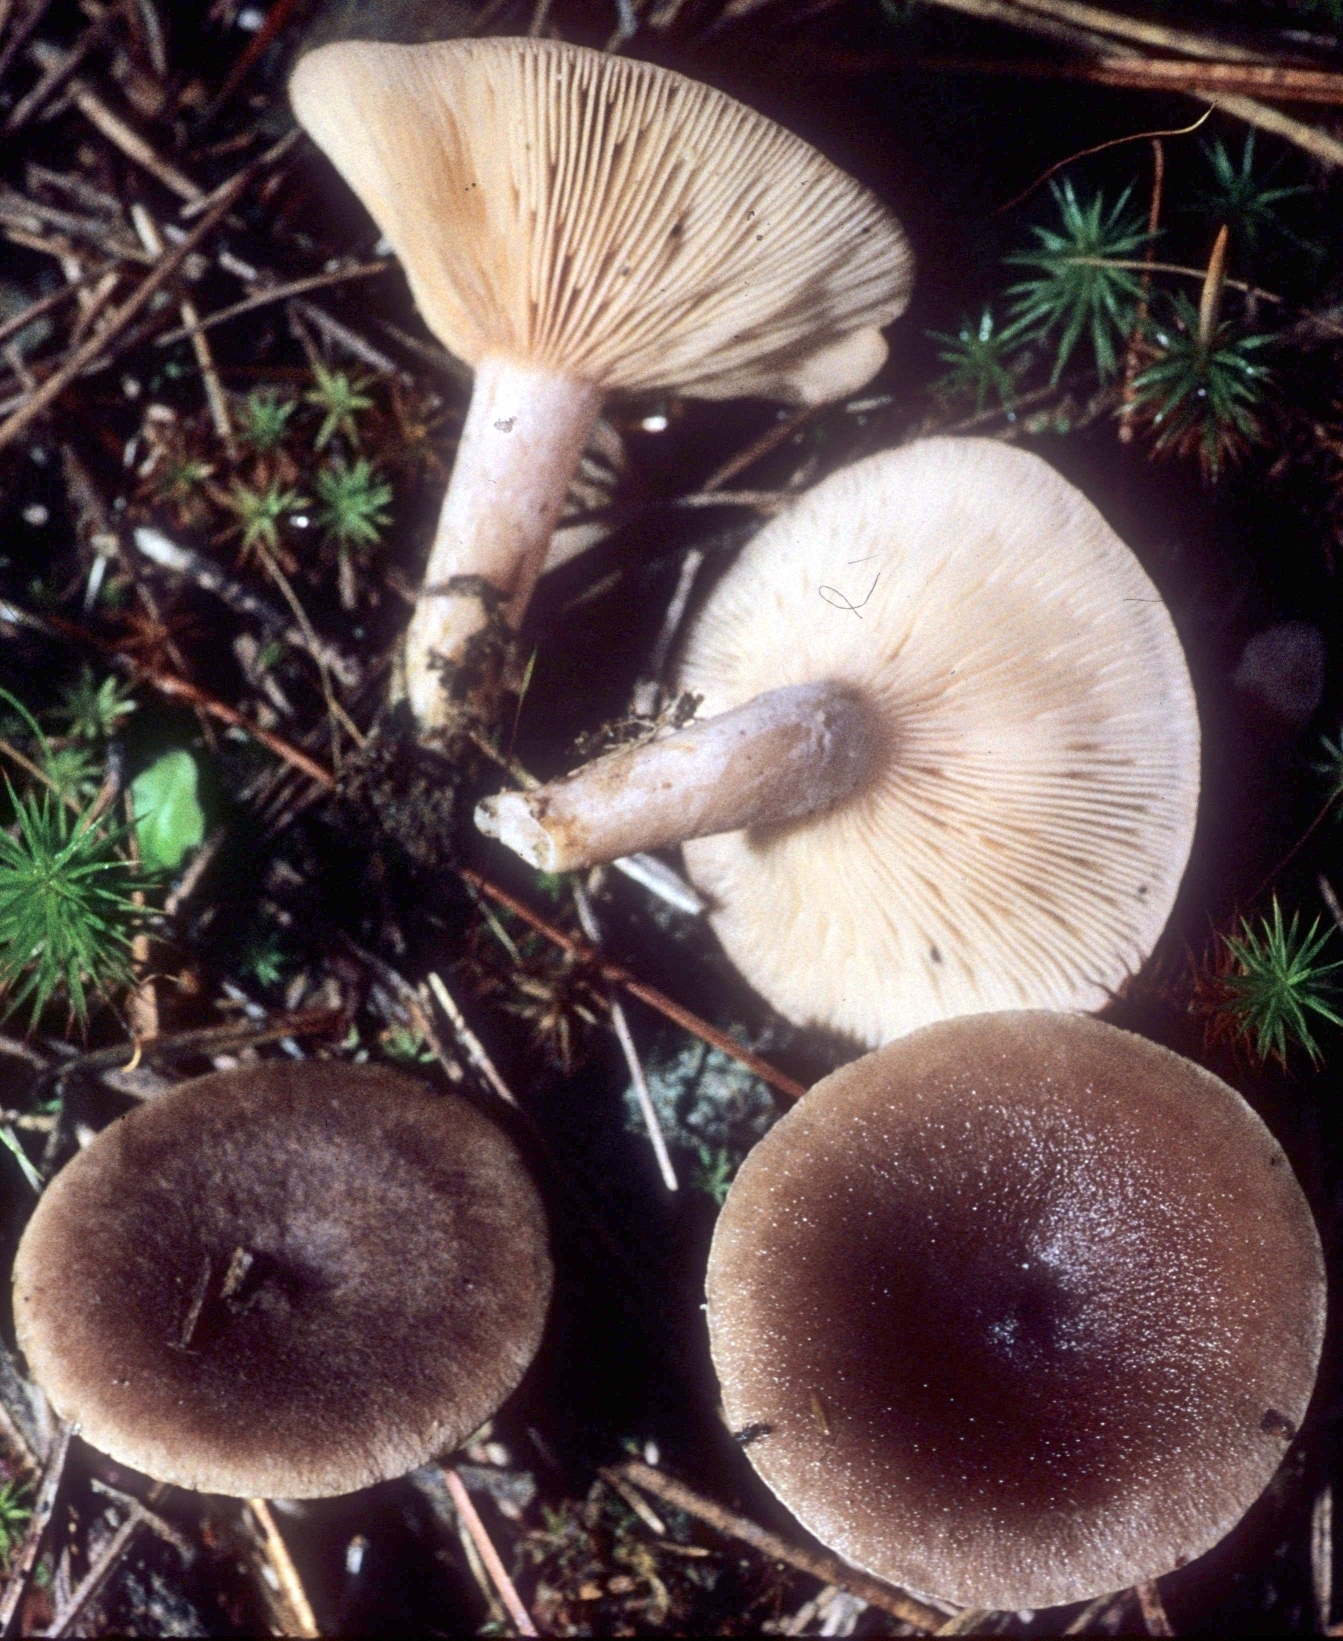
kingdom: Fungi
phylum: Basidiomycota
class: Agaricomycetes
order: Russulales
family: Russulaceae
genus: Lactarius
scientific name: Lactarius mammosus
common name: Pap milkcap
